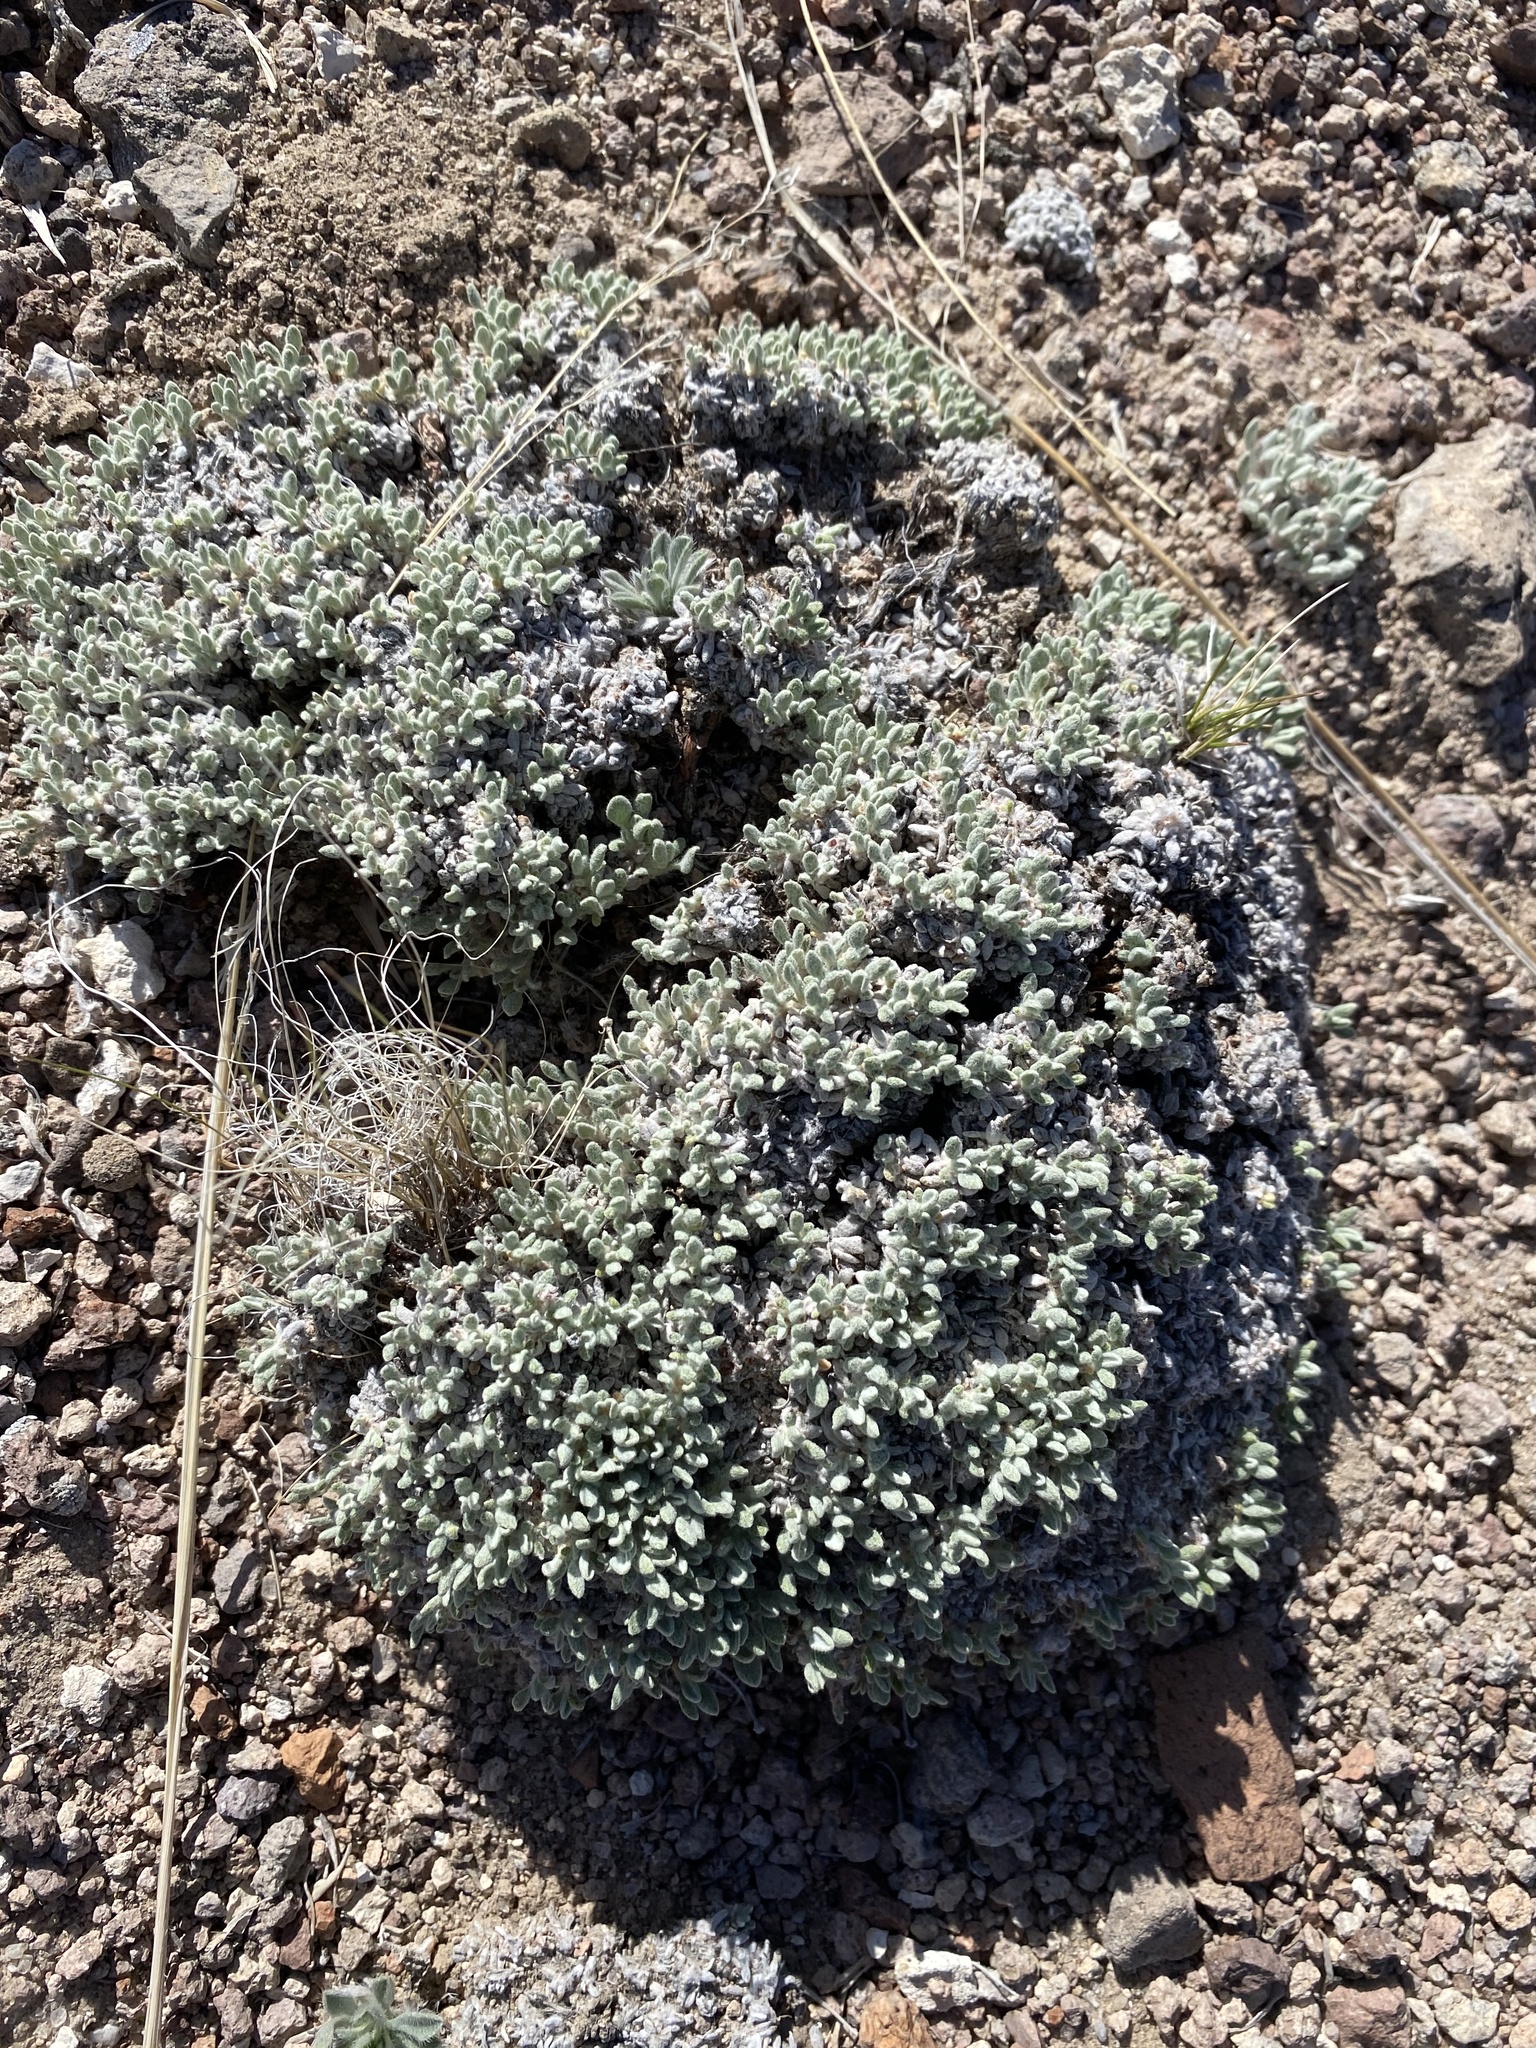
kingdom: Plantae
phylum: Tracheophyta
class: Magnoliopsida
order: Caryophyllales
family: Polygonaceae
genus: Eriogonum
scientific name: Eriogonum shockleyi
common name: Shockley's wild buckwheat
